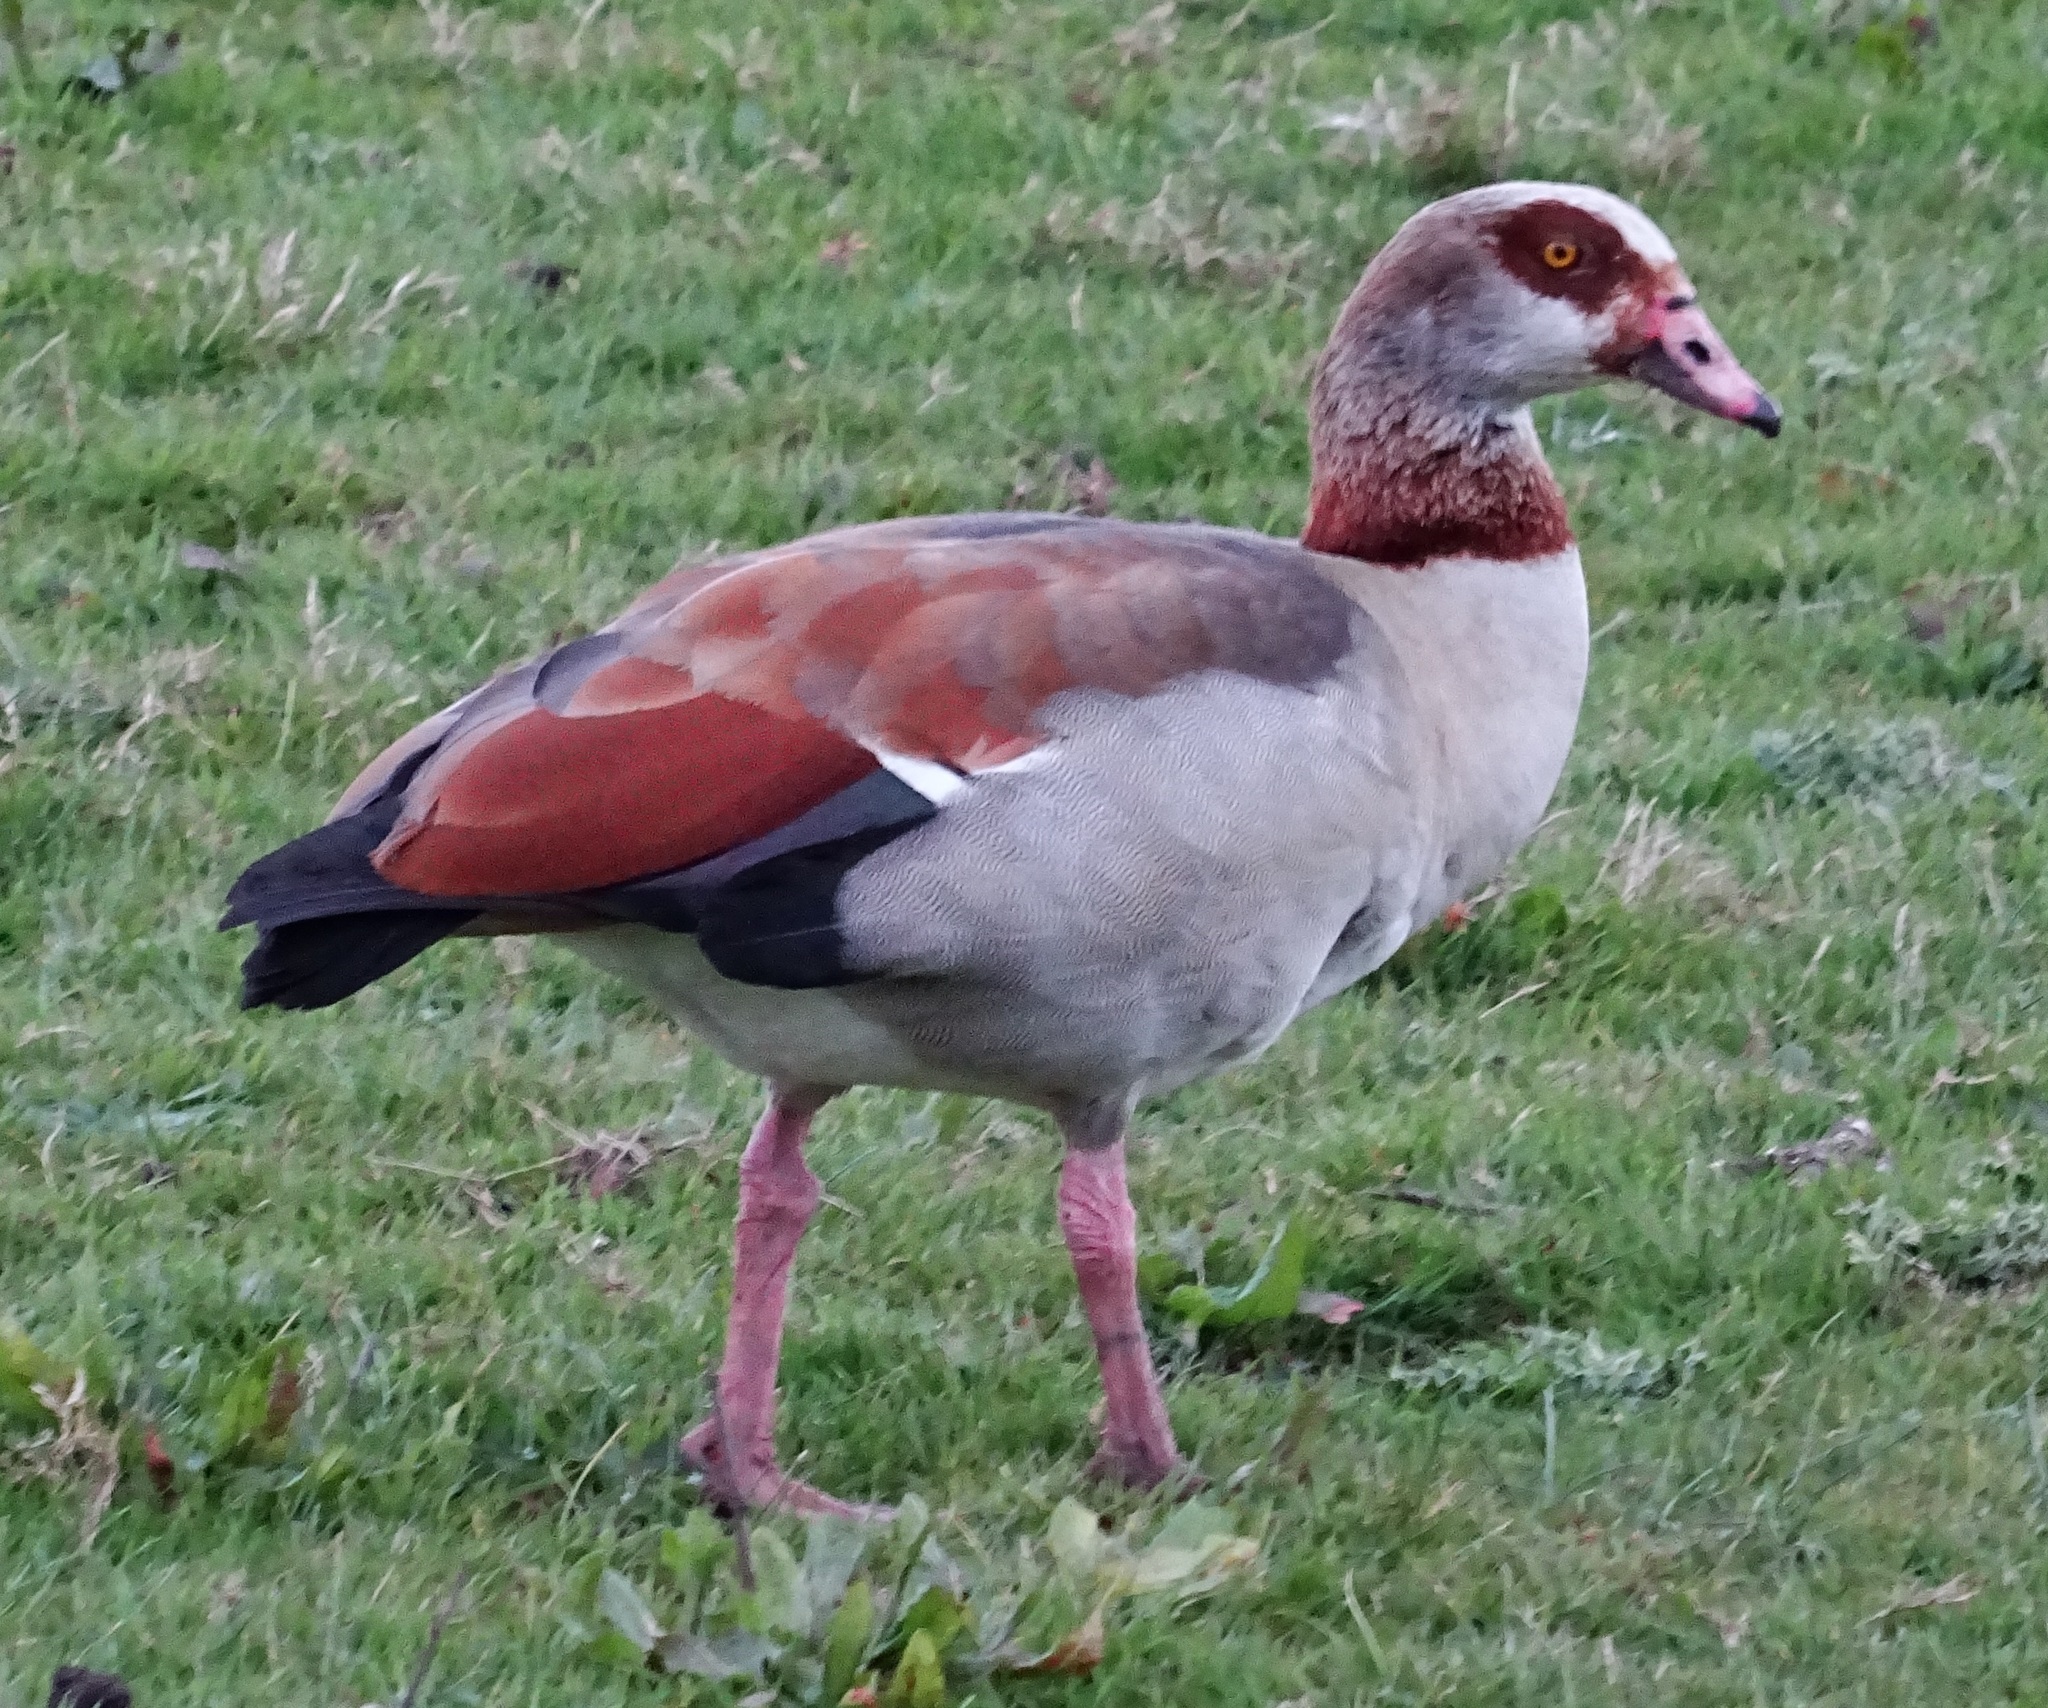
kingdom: Animalia
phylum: Chordata
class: Aves
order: Anseriformes
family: Anatidae
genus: Alopochen
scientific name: Alopochen aegyptiaca
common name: Egyptian goose
